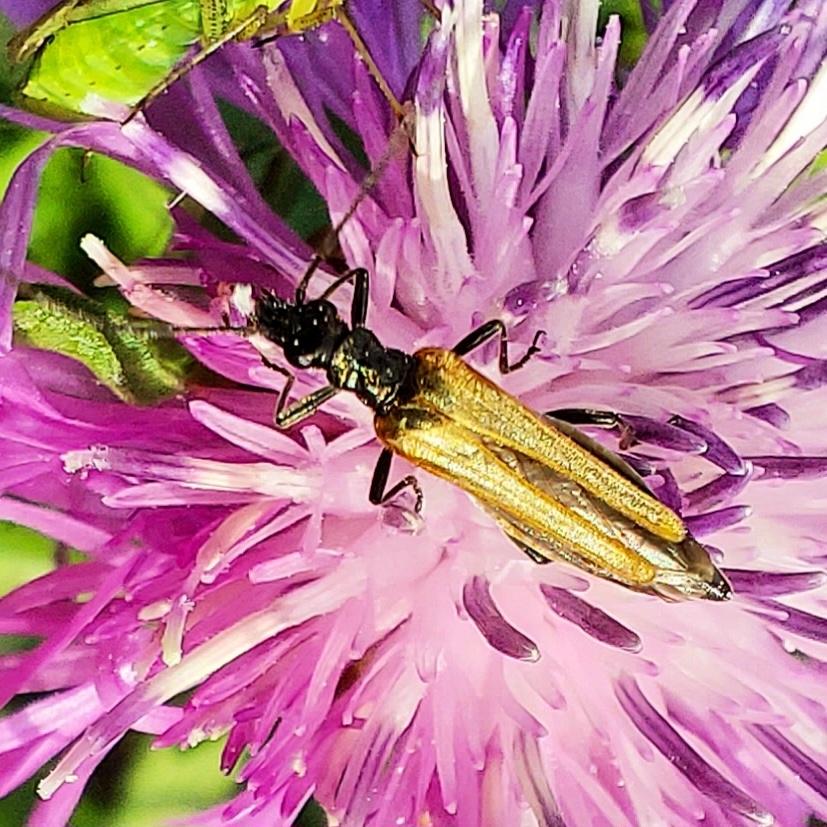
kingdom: Animalia
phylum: Arthropoda
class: Insecta
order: Coleoptera
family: Oedemeridae
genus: Oedemera
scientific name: Oedemera femorata
